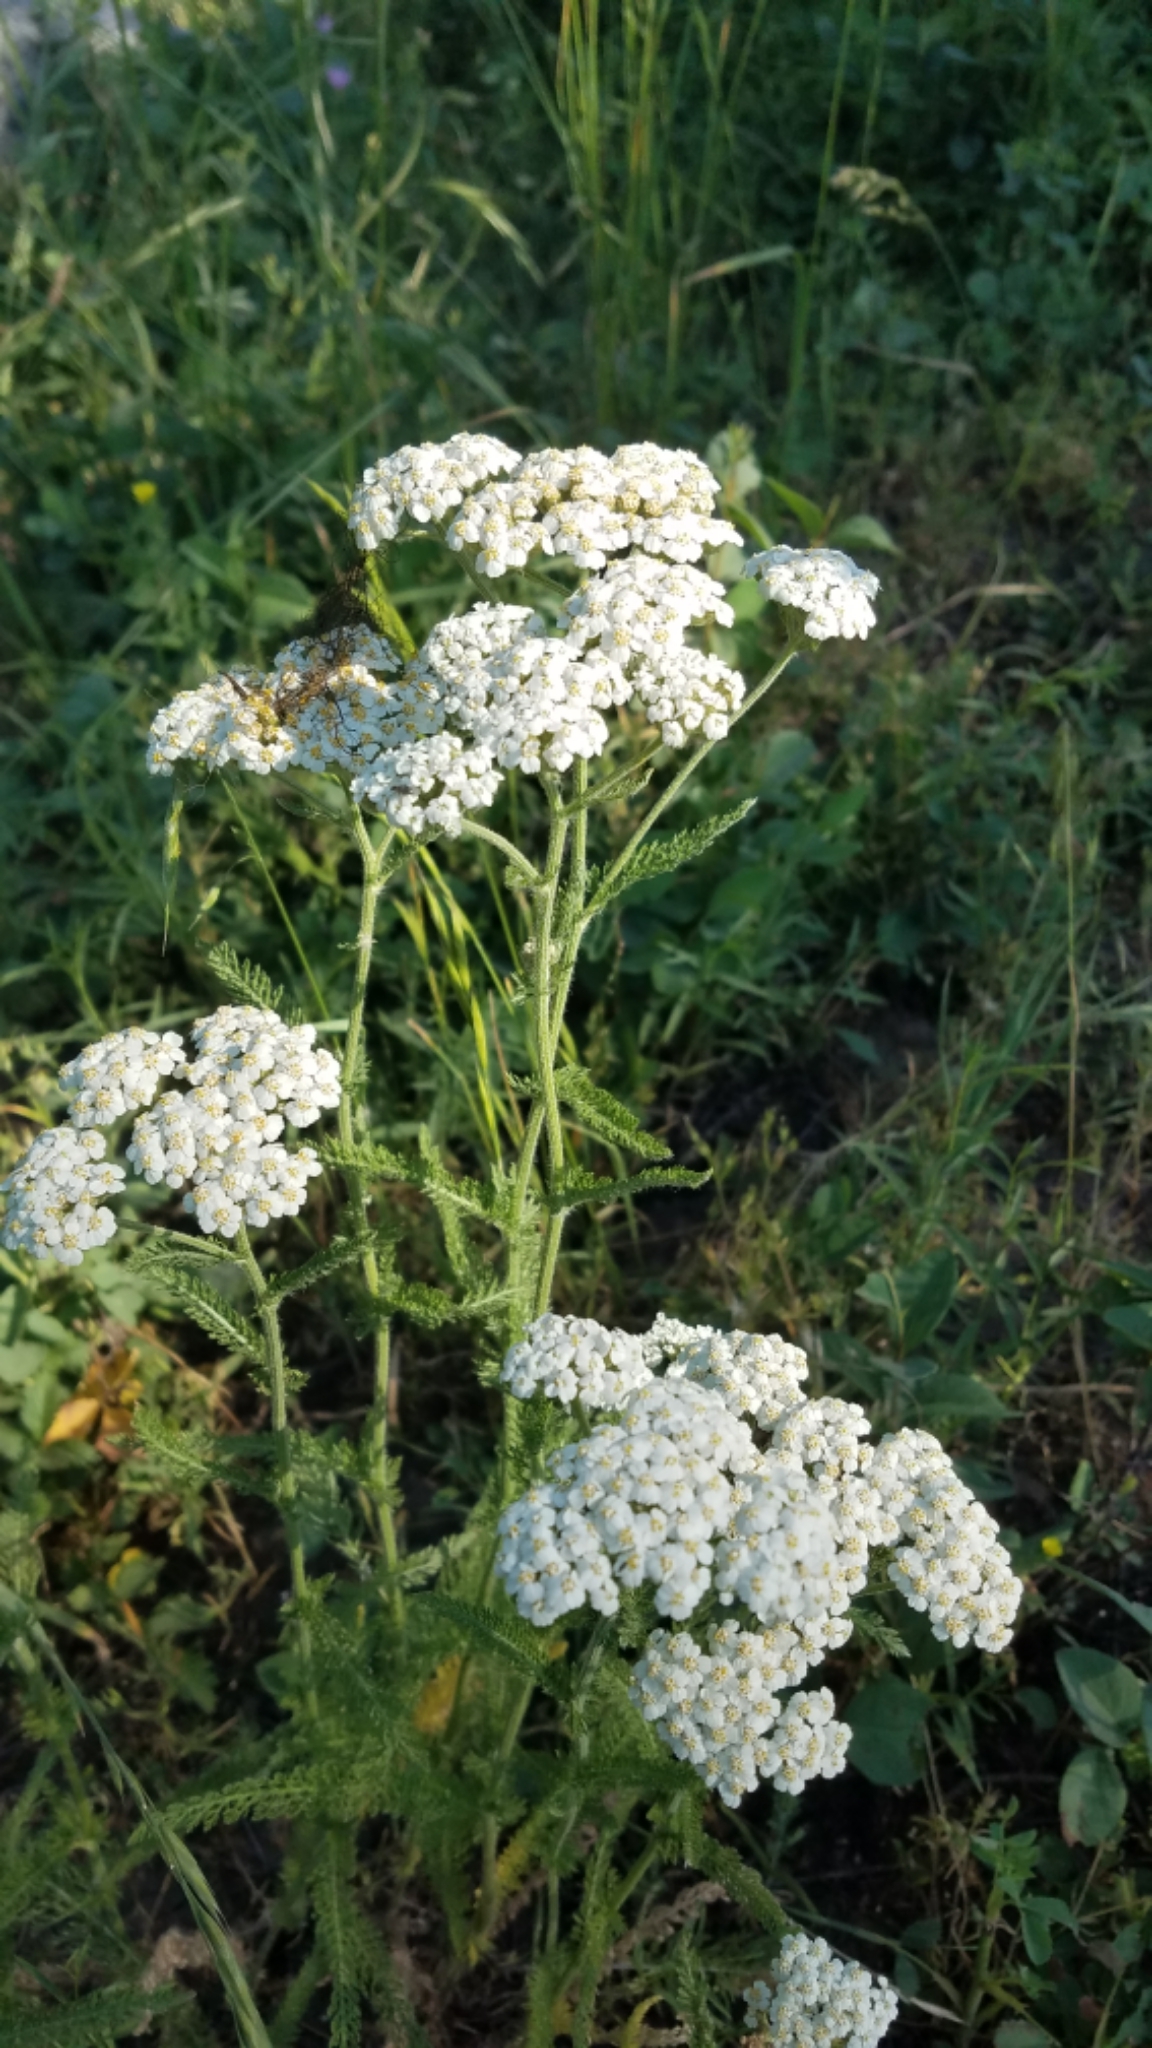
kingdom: Plantae
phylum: Tracheophyta
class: Magnoliopsida
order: Asterales
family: Asteraceae
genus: Achillea
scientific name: Achillea millefolium
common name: Yarrow
